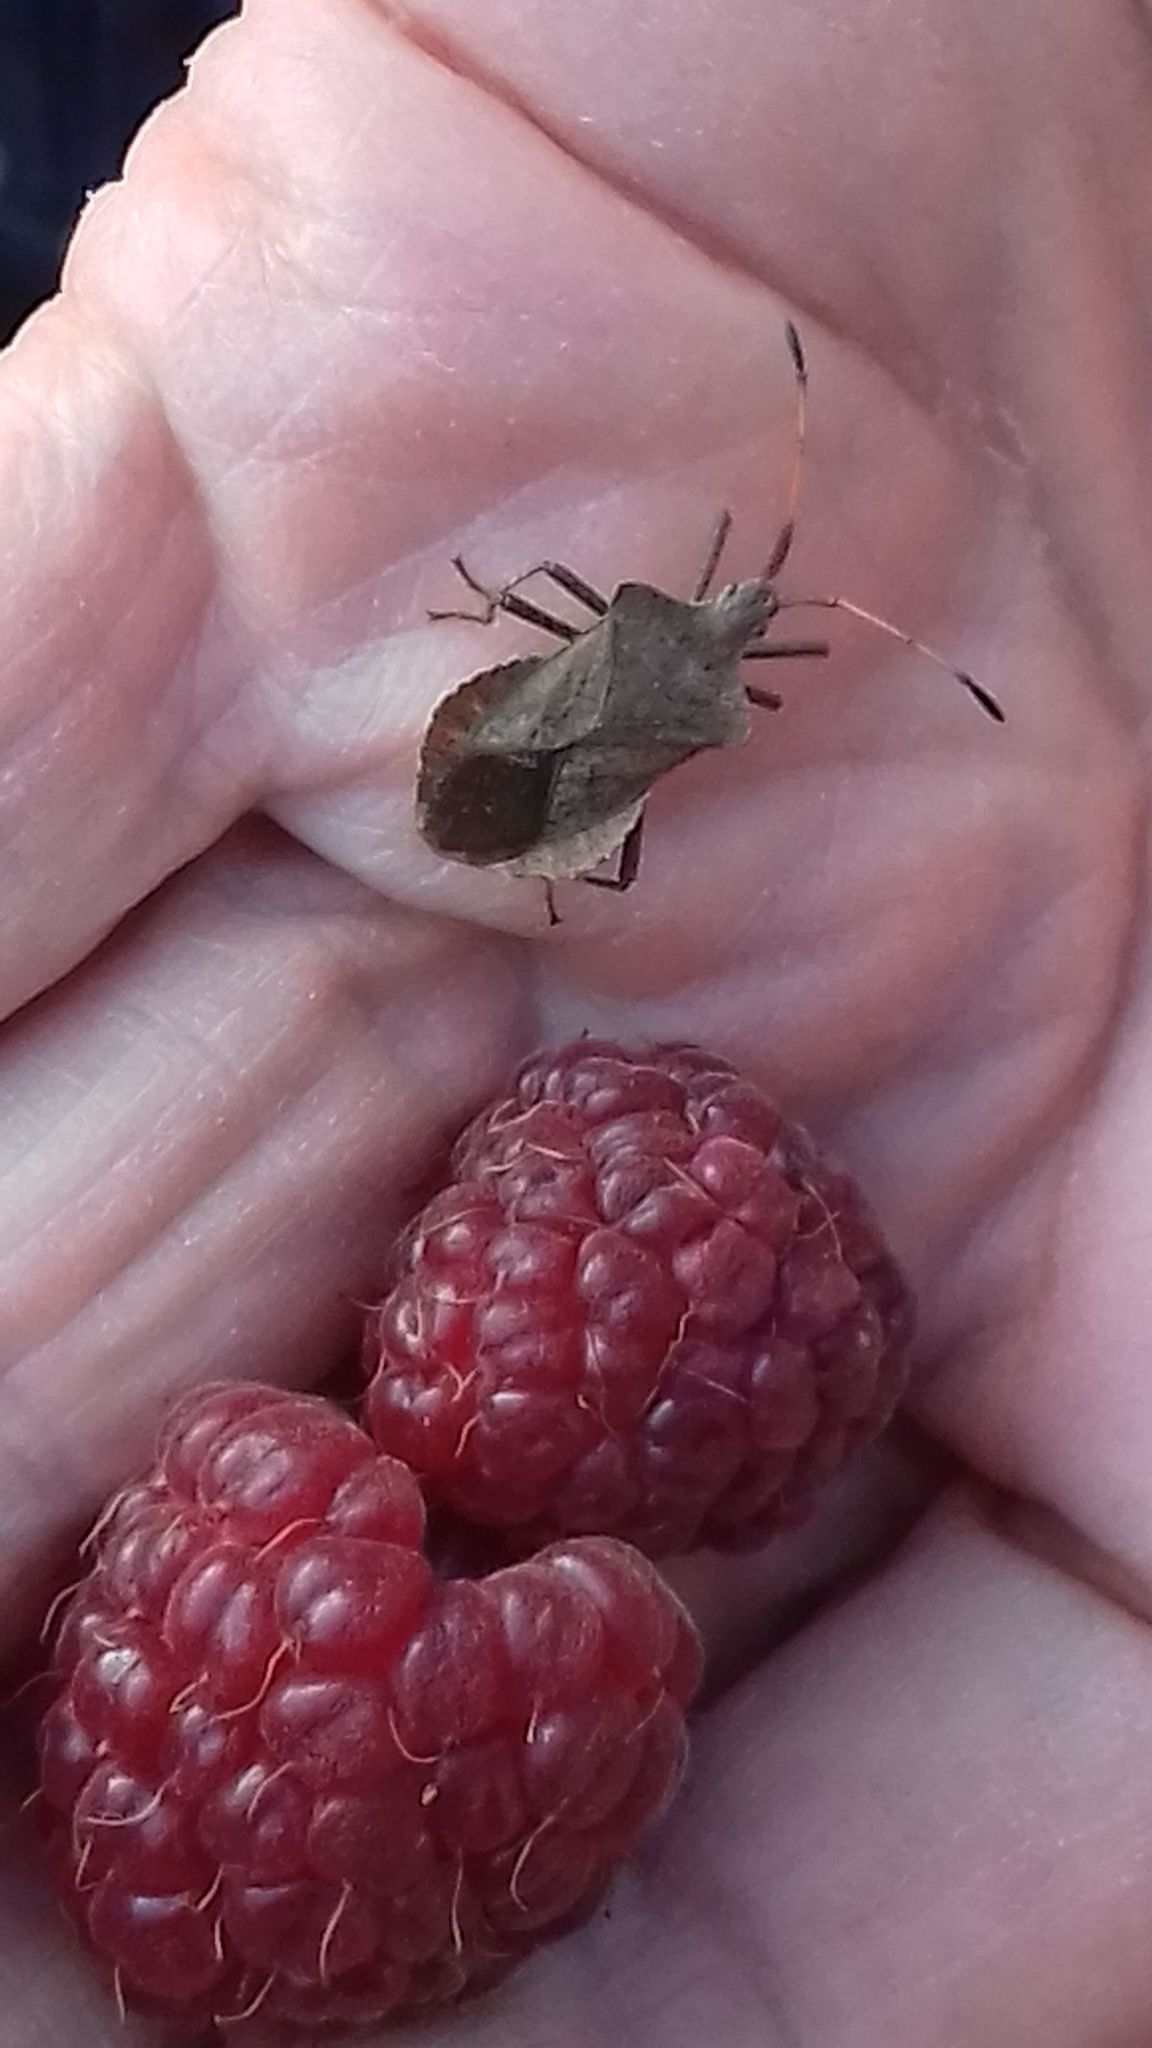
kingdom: Animalia
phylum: Arthropoda
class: Insecta
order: Hemiptera
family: Coreidae
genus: Coreus
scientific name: Coreus marginatus
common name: Dock bug
